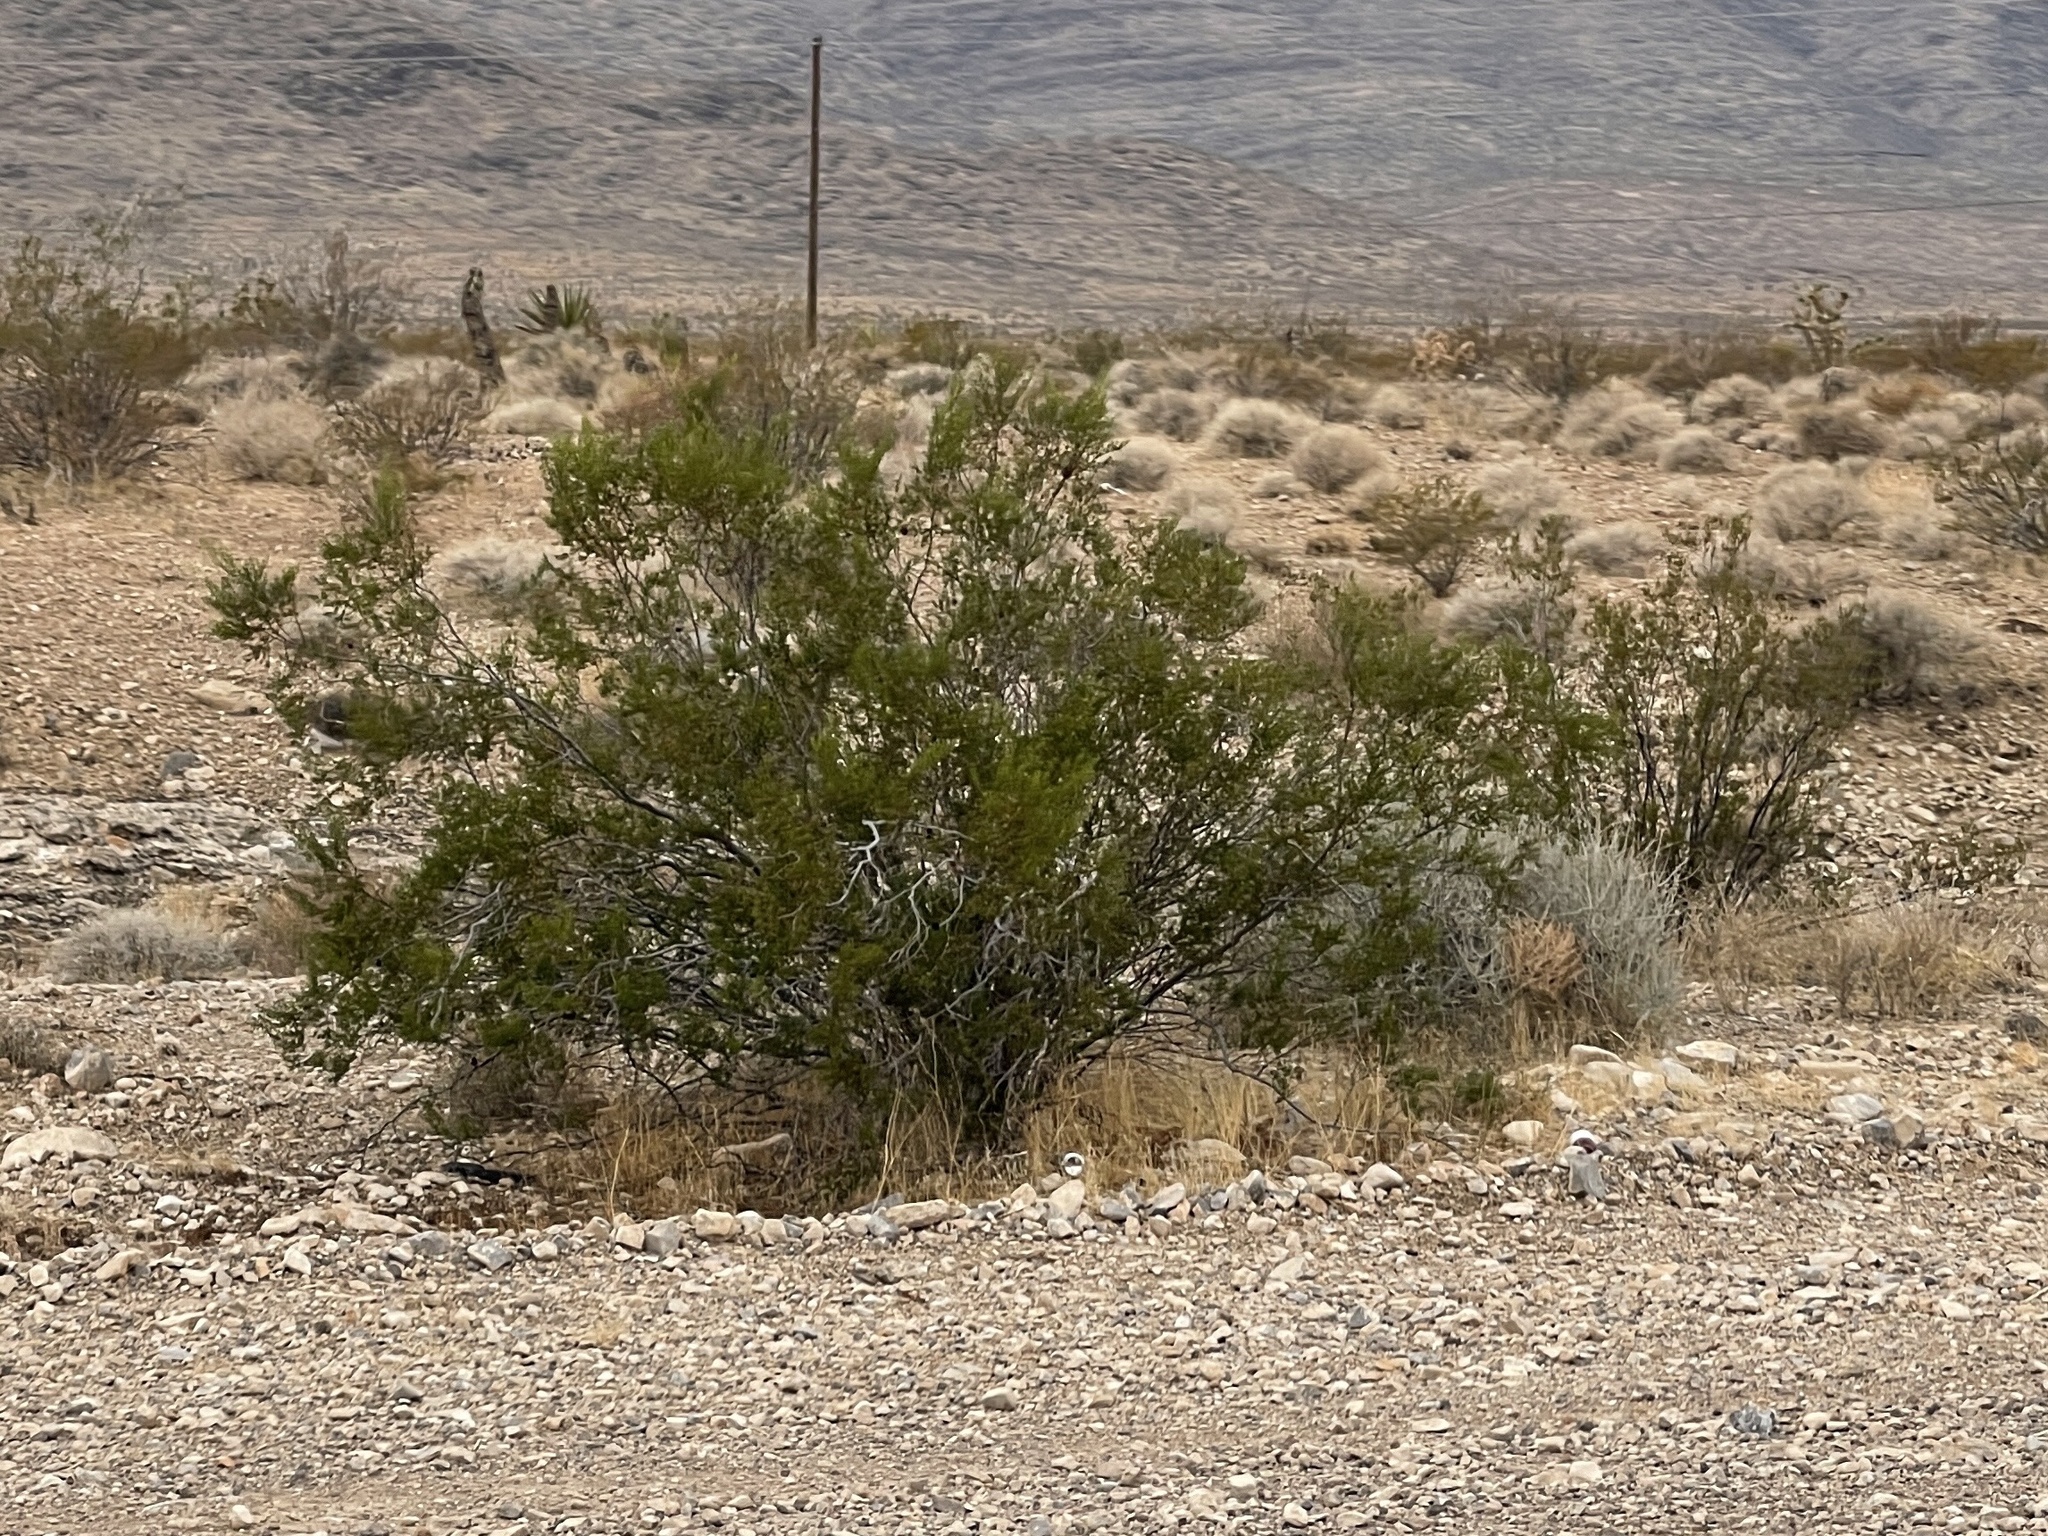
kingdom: Plantae
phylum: Tracheophyta
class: Magnoliopsida
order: Zygophyllales
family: Zygophyllaceae
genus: Larrea
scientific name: Larrea tridentata
